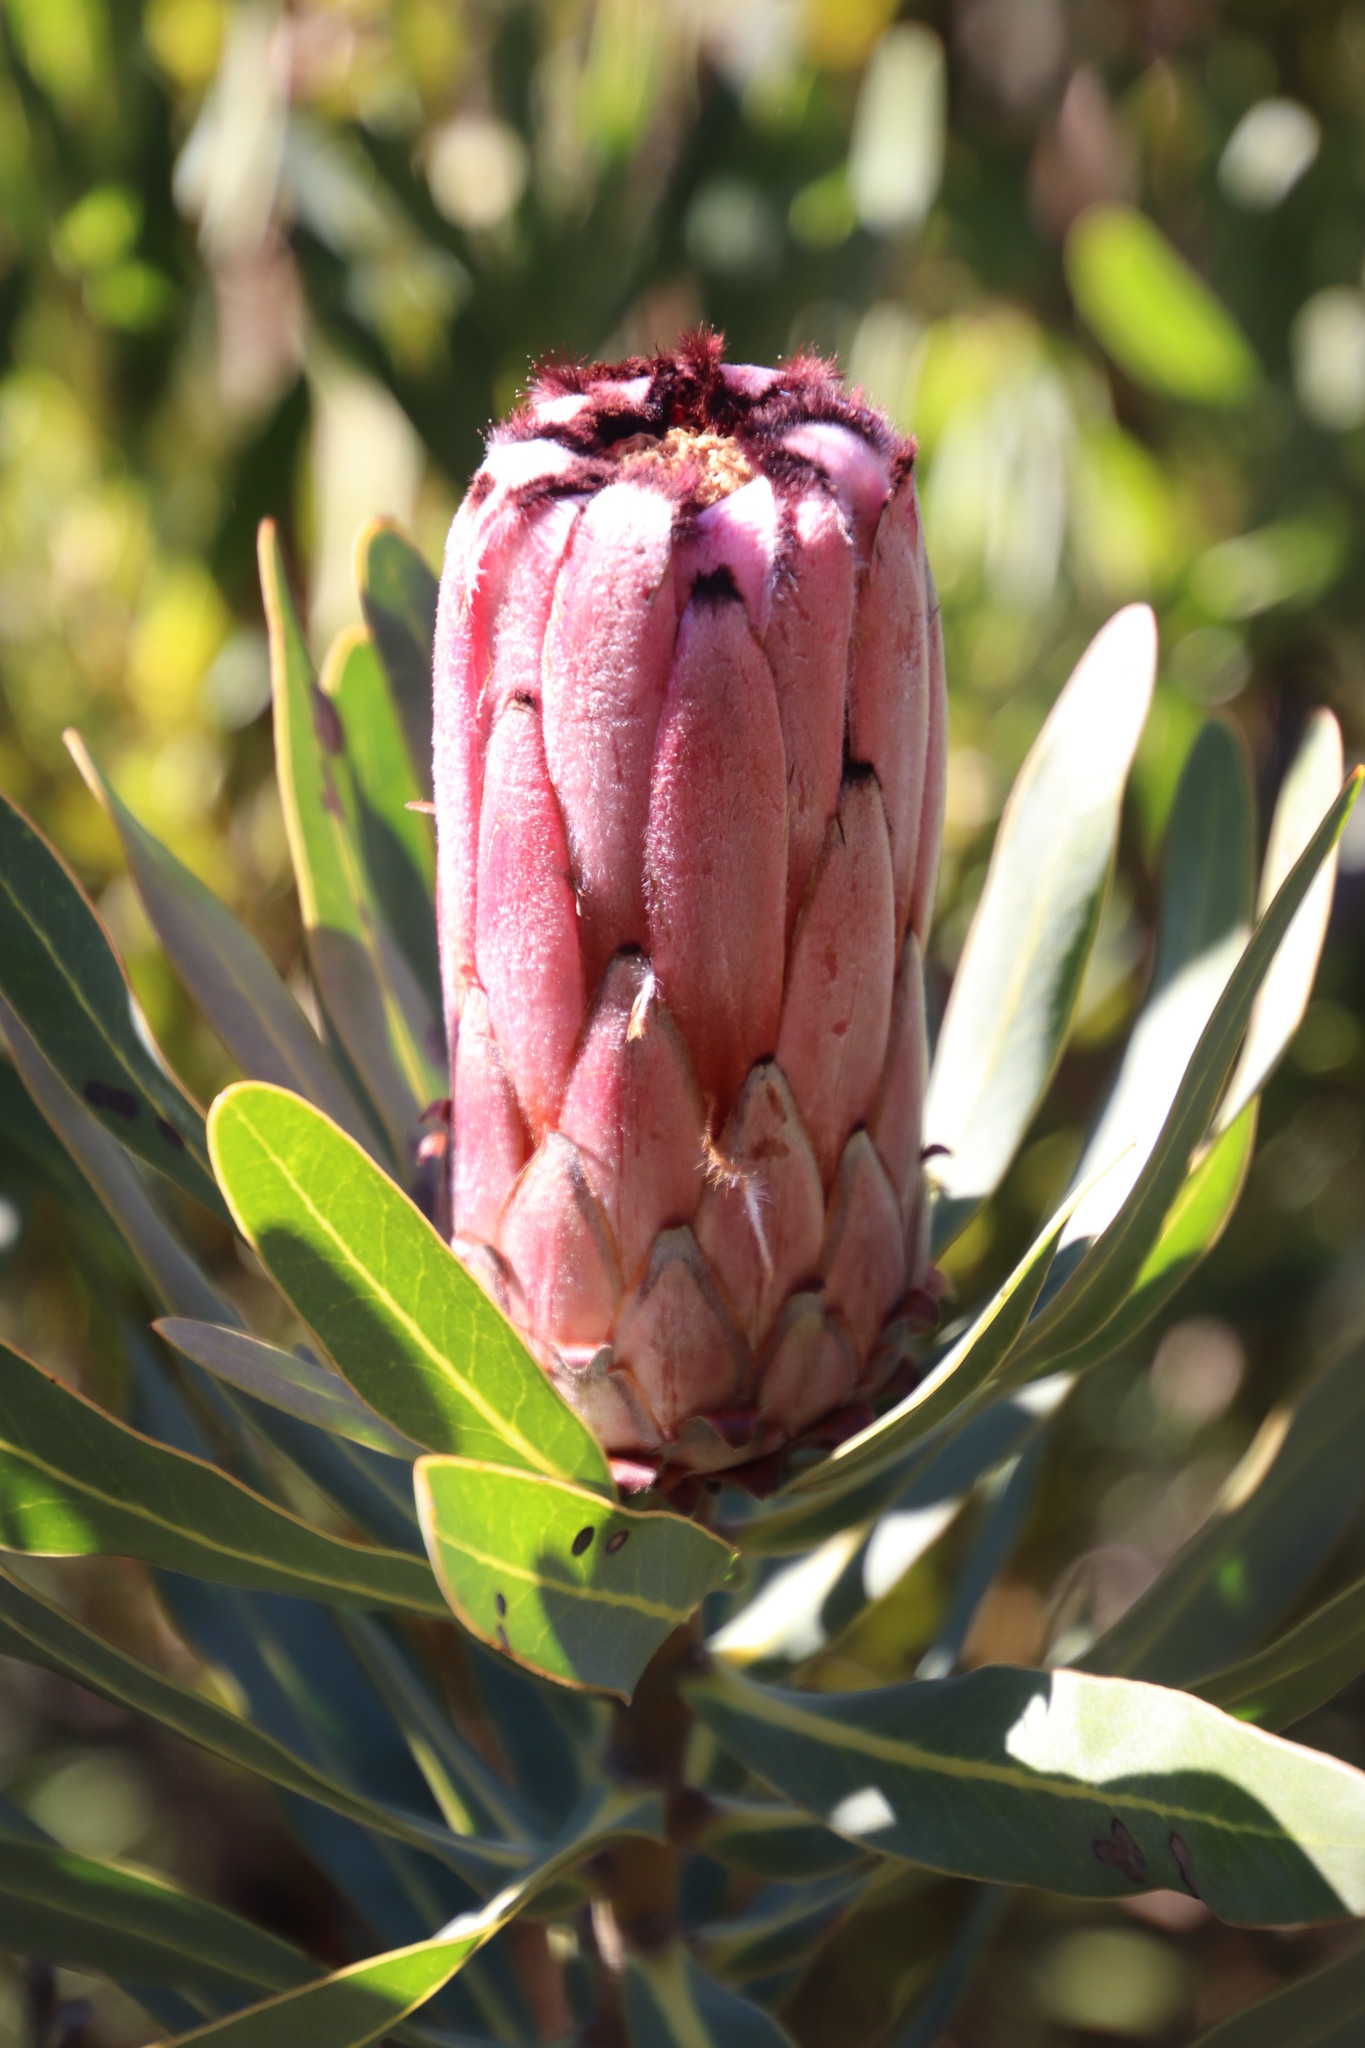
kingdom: Plantae
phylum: Tracheophyta
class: Magnoliopsida
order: Proteales
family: Proteaceae
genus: Protea
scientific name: Protea
